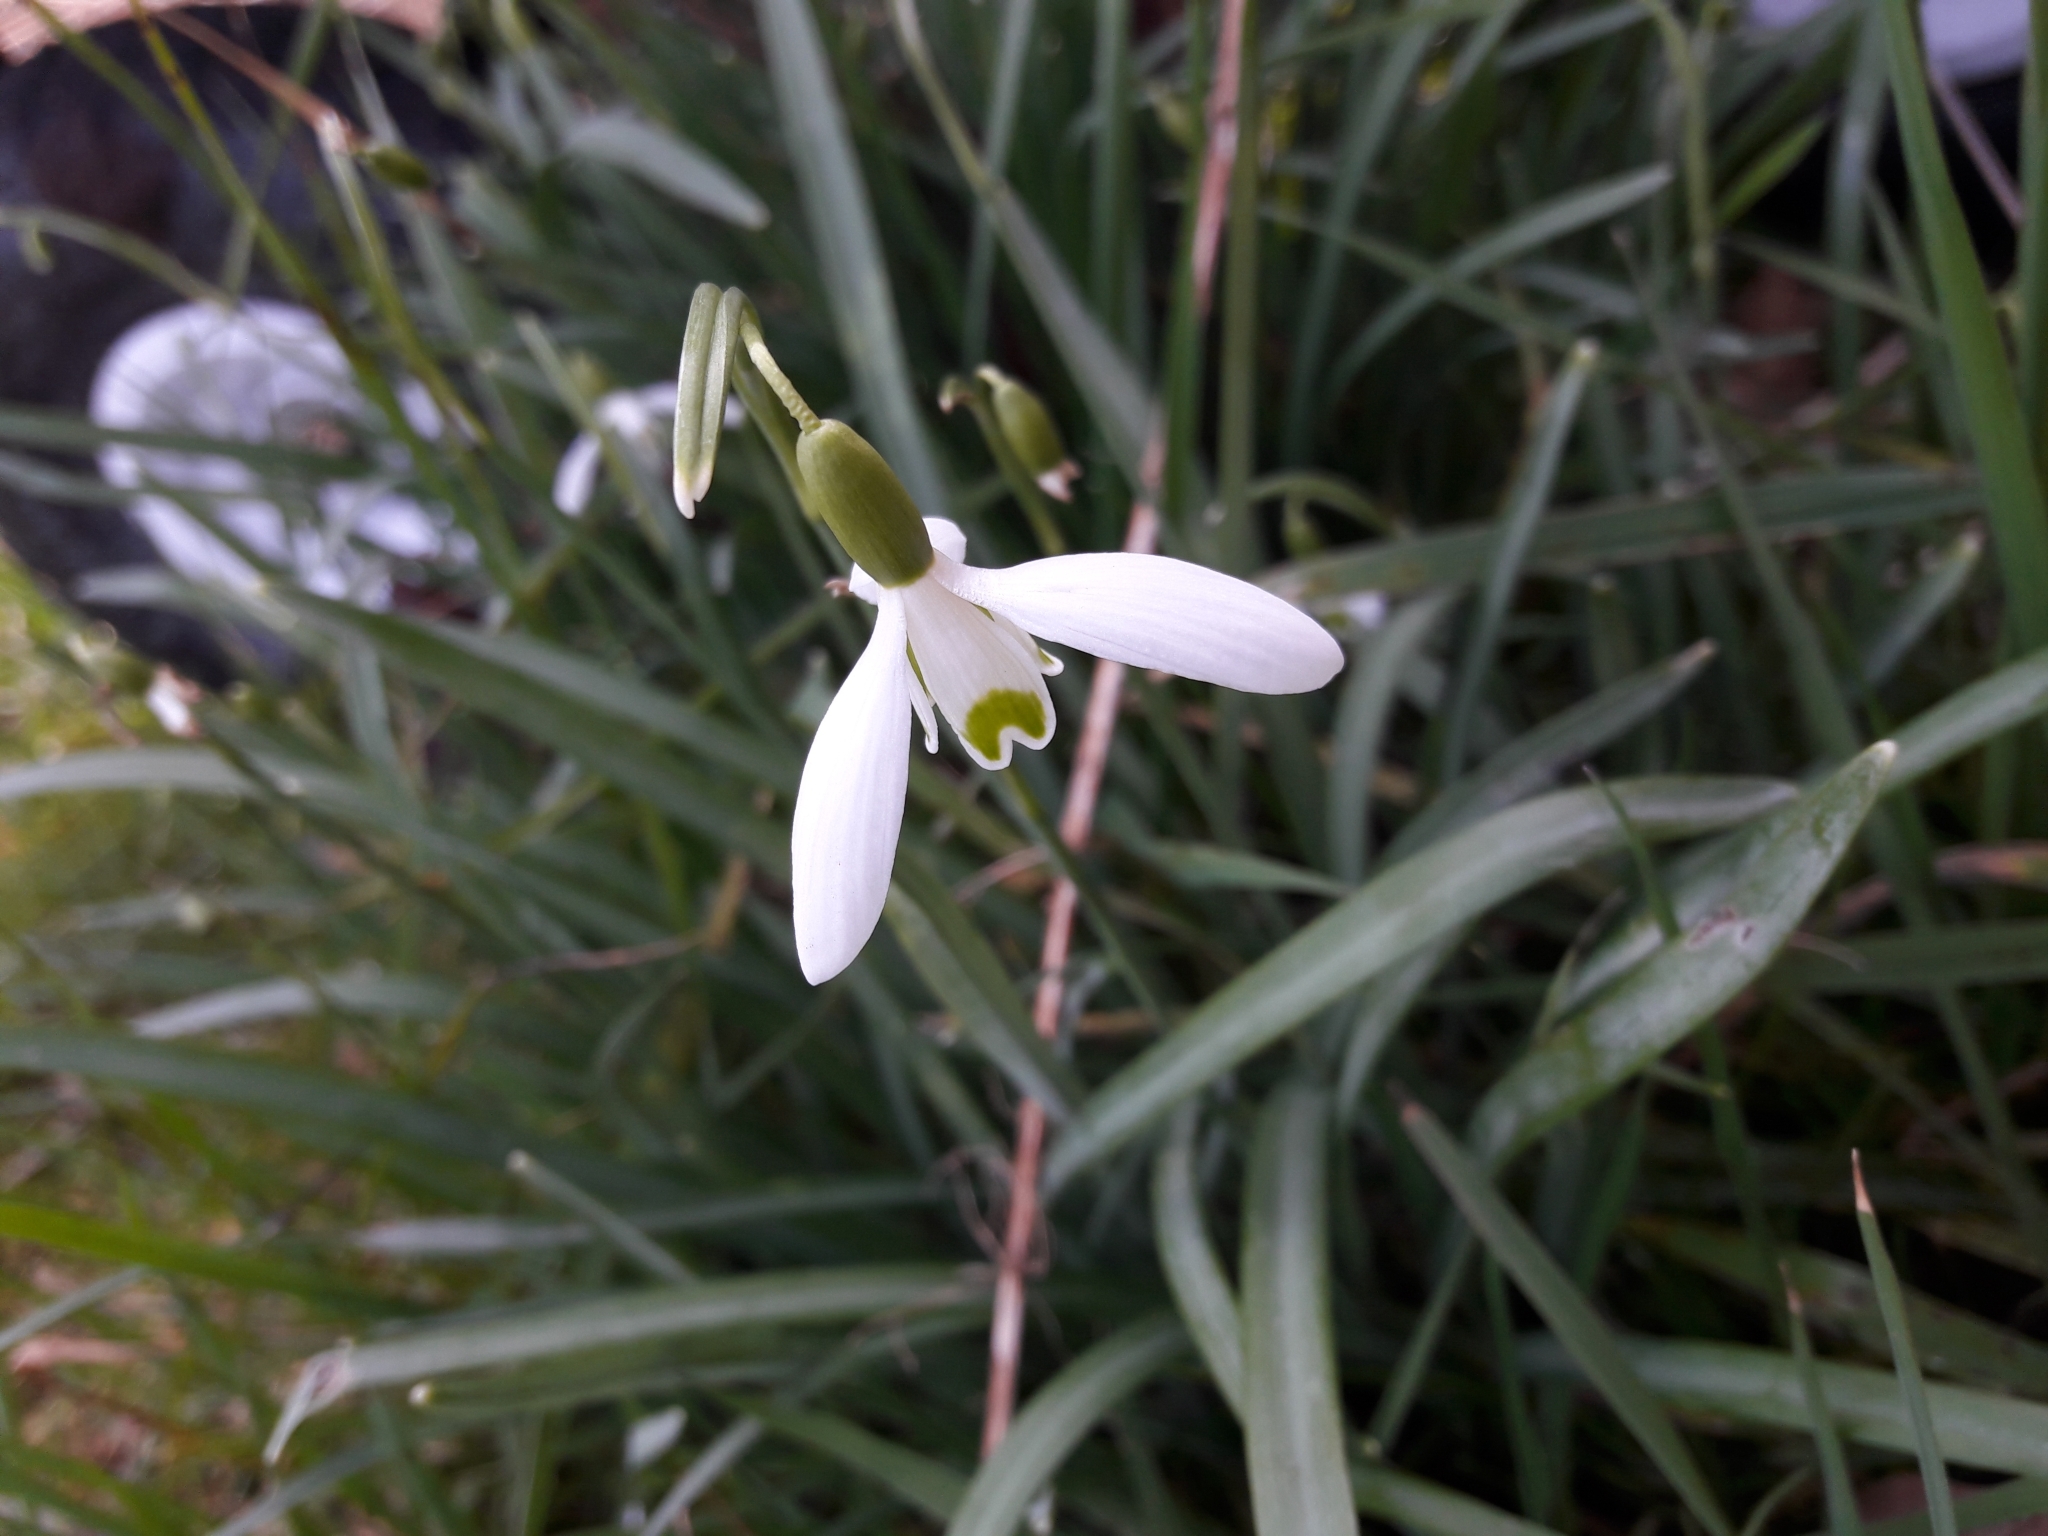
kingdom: Plantae
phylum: Tracheophyta
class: Liliopsida
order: Asparagales
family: Amaryllidaceae
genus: Galanthus
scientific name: Galanthus nivalis
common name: Snowdrop
